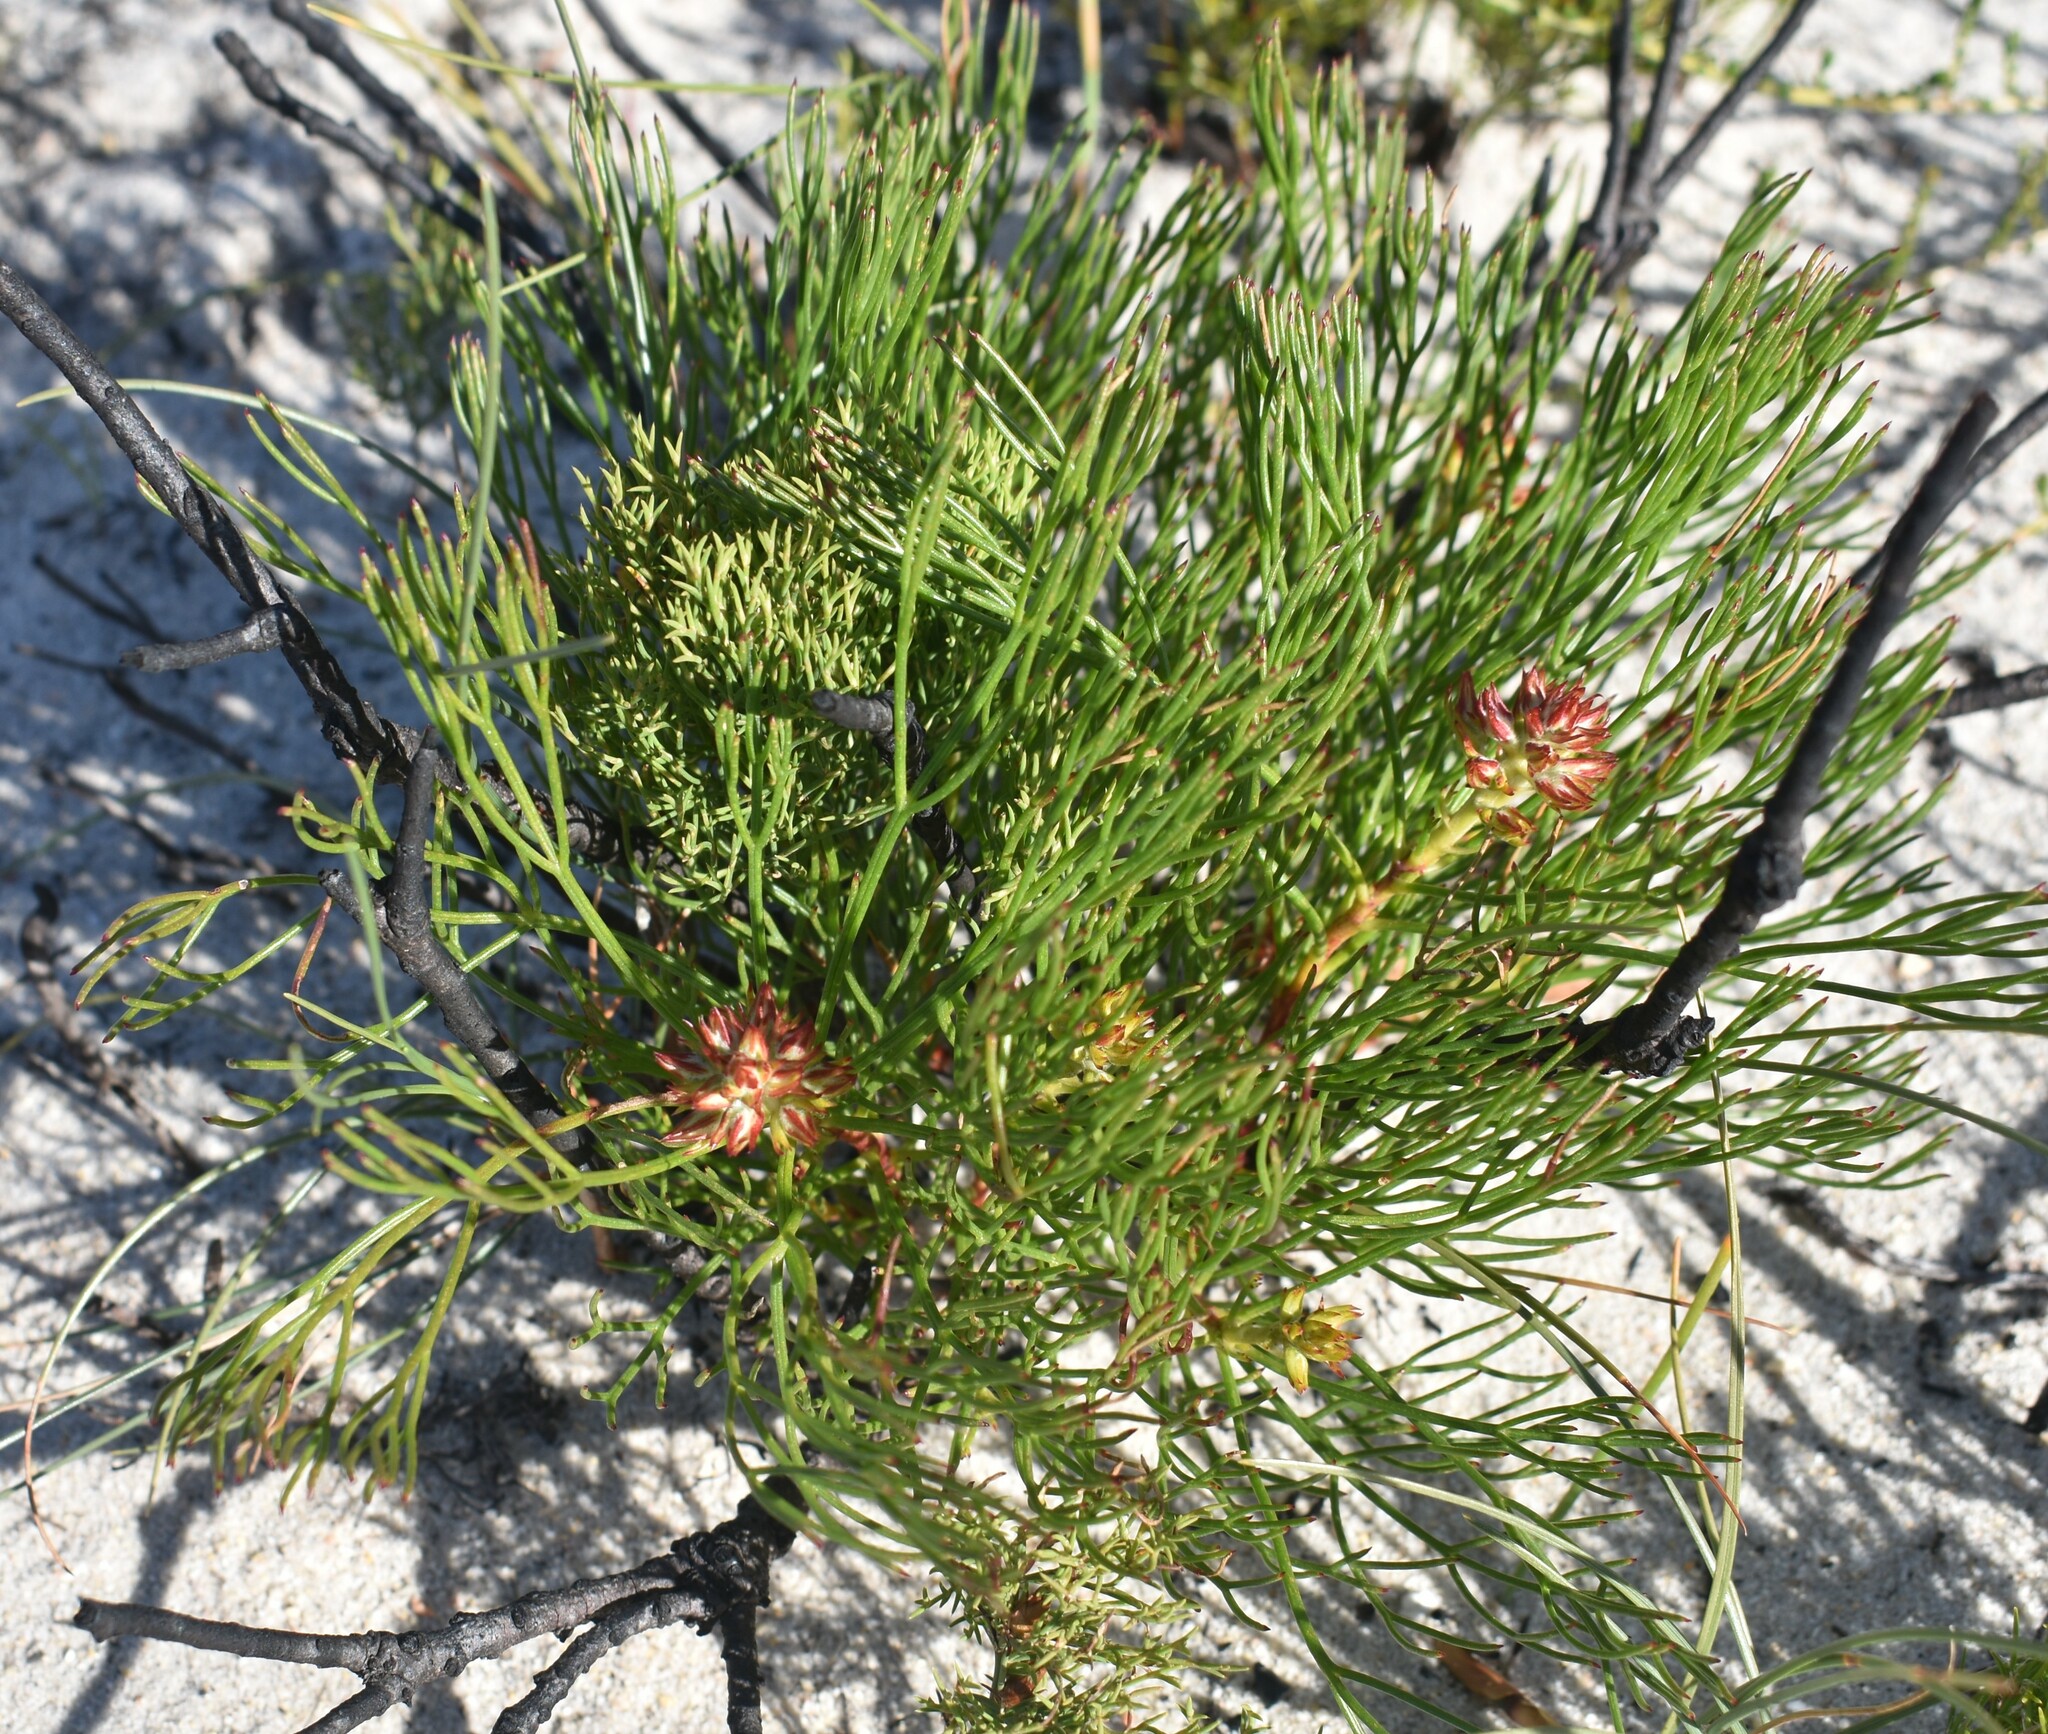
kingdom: Plantae
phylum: Tracheophyta
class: Magnoliopsida
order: Proteales
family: Proteaceae
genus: Serruria
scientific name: Serruria rubricaulis
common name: Red-stem spiderhead
